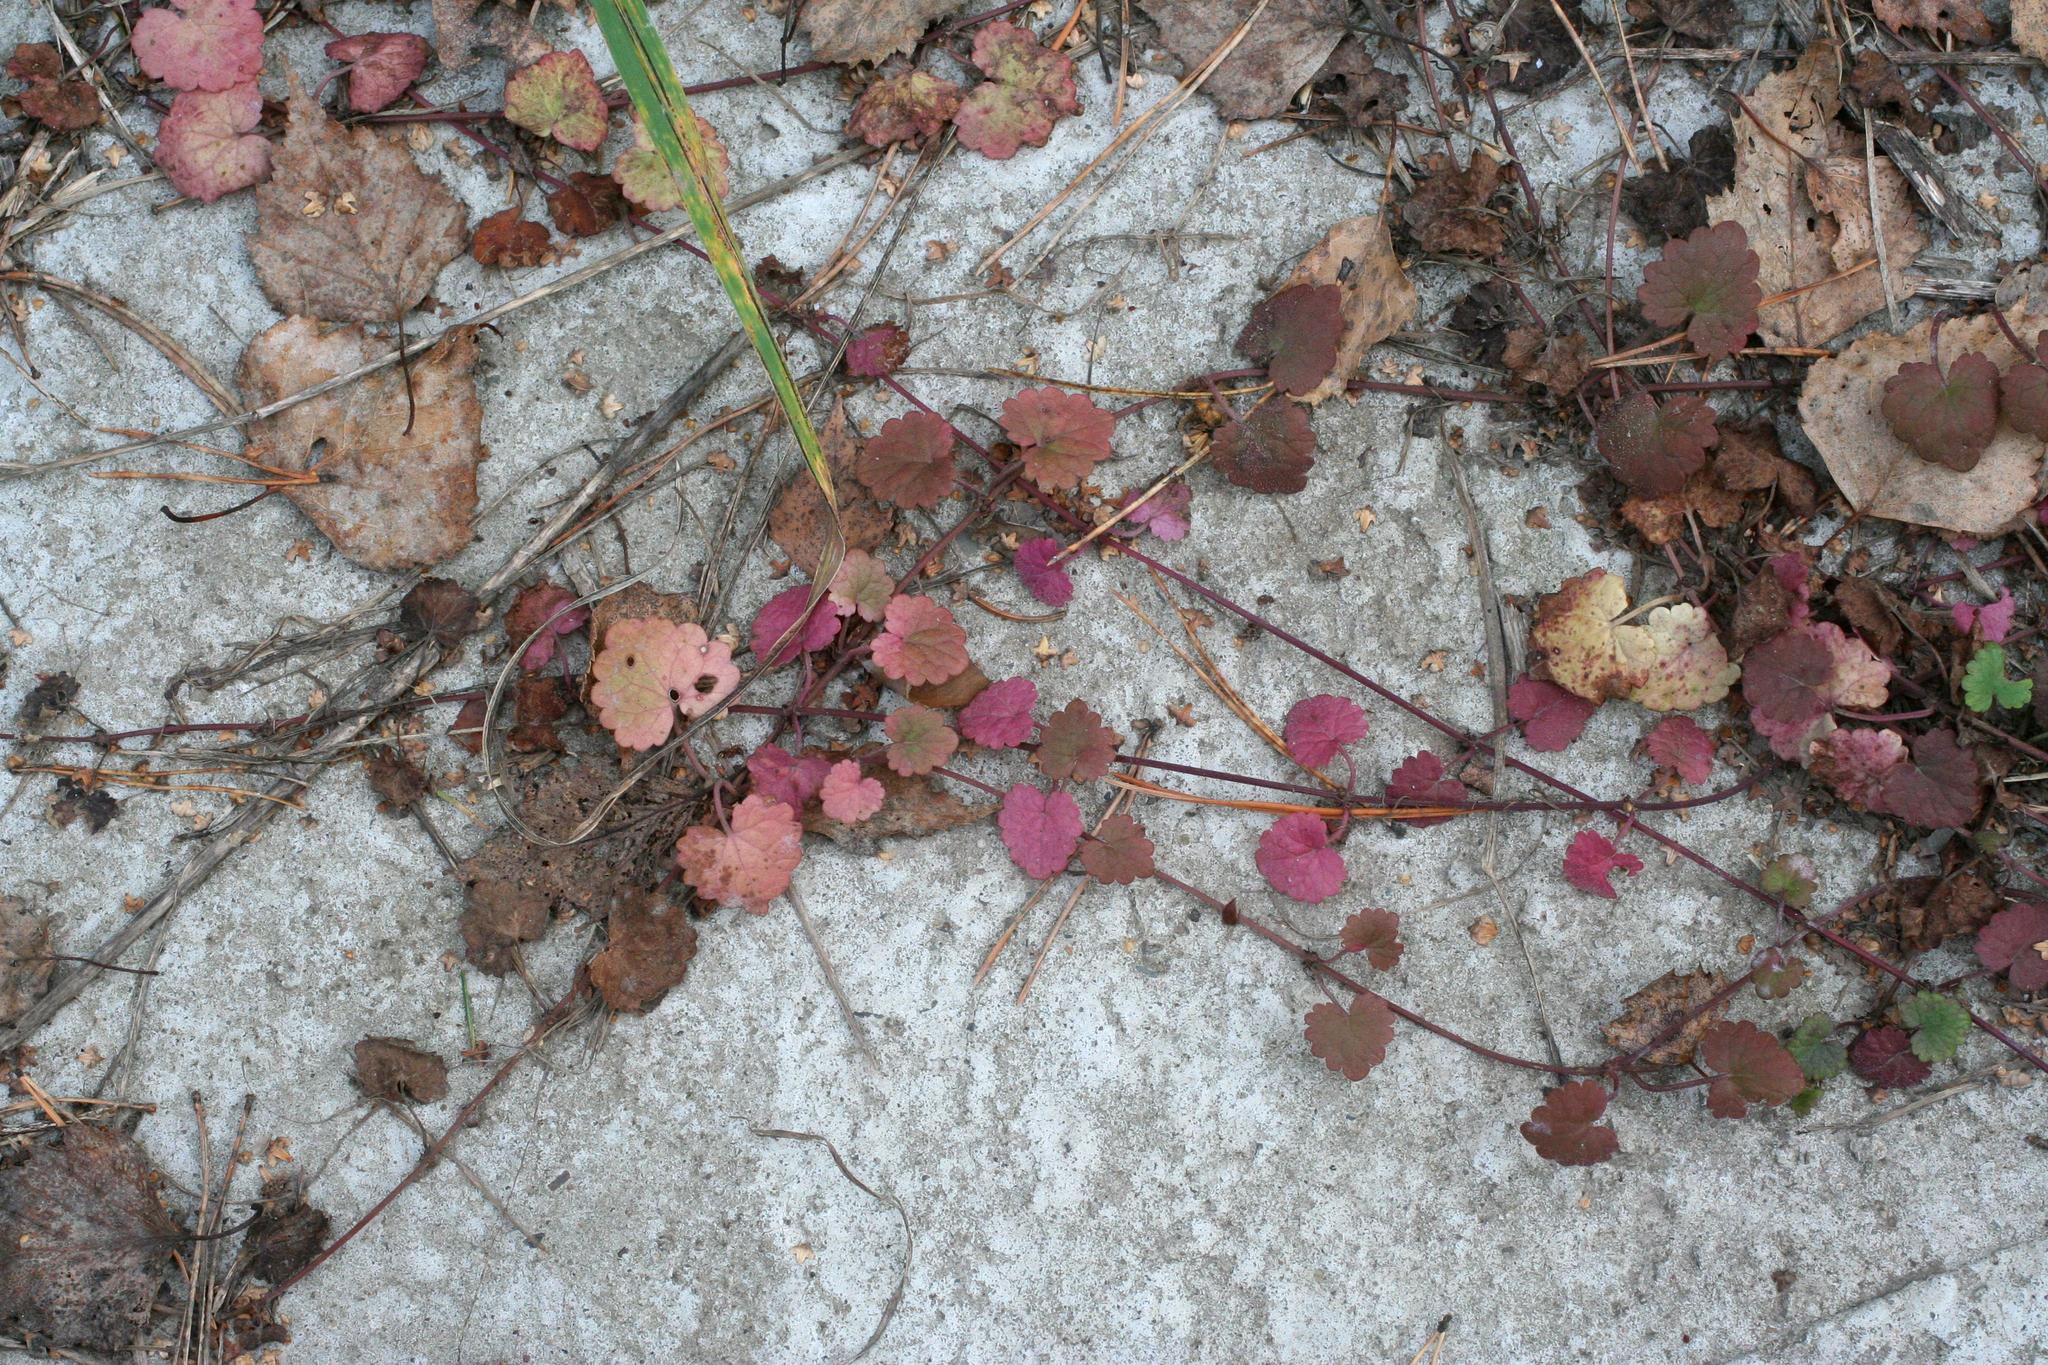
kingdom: Plantae
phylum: Tracheophyta
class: Magnoliopsida
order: Lamiales
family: Lamiaceae
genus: Glechoma
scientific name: Glechoma hederacea
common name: Ground ivy
